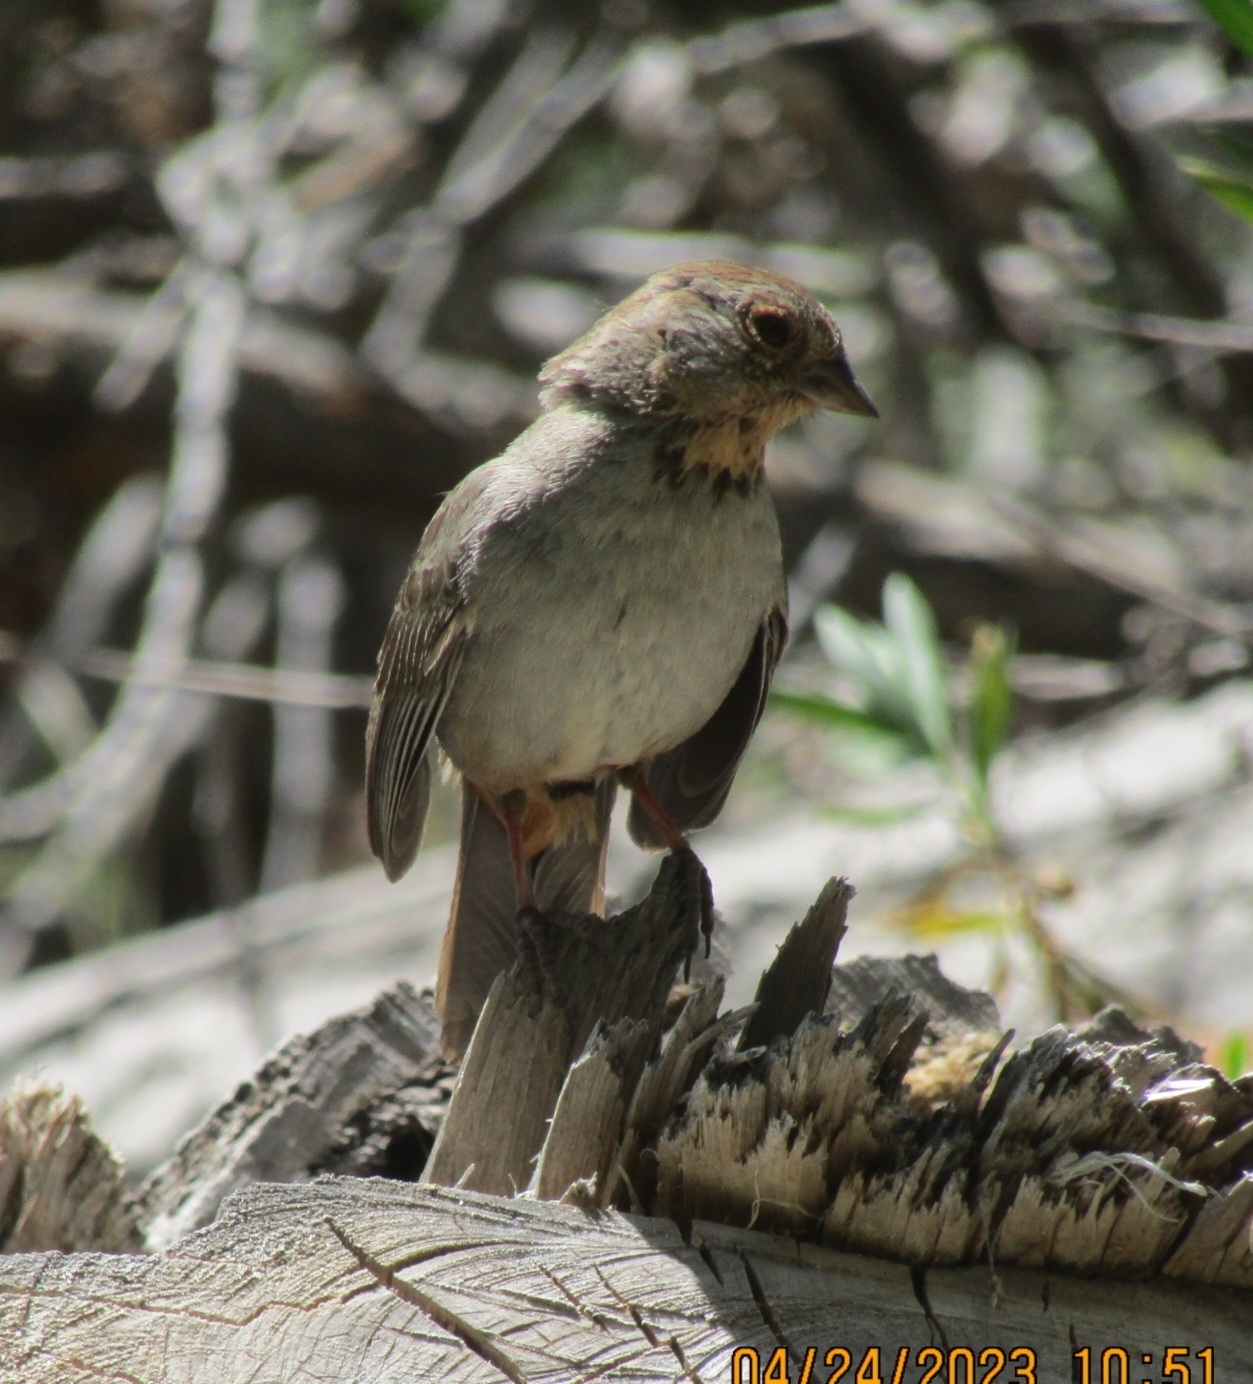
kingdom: Animalia
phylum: Chordata
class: Aves
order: Passeriformes
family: Passerellidae
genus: Melozone
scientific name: Melozone crissalis
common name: California towhee
